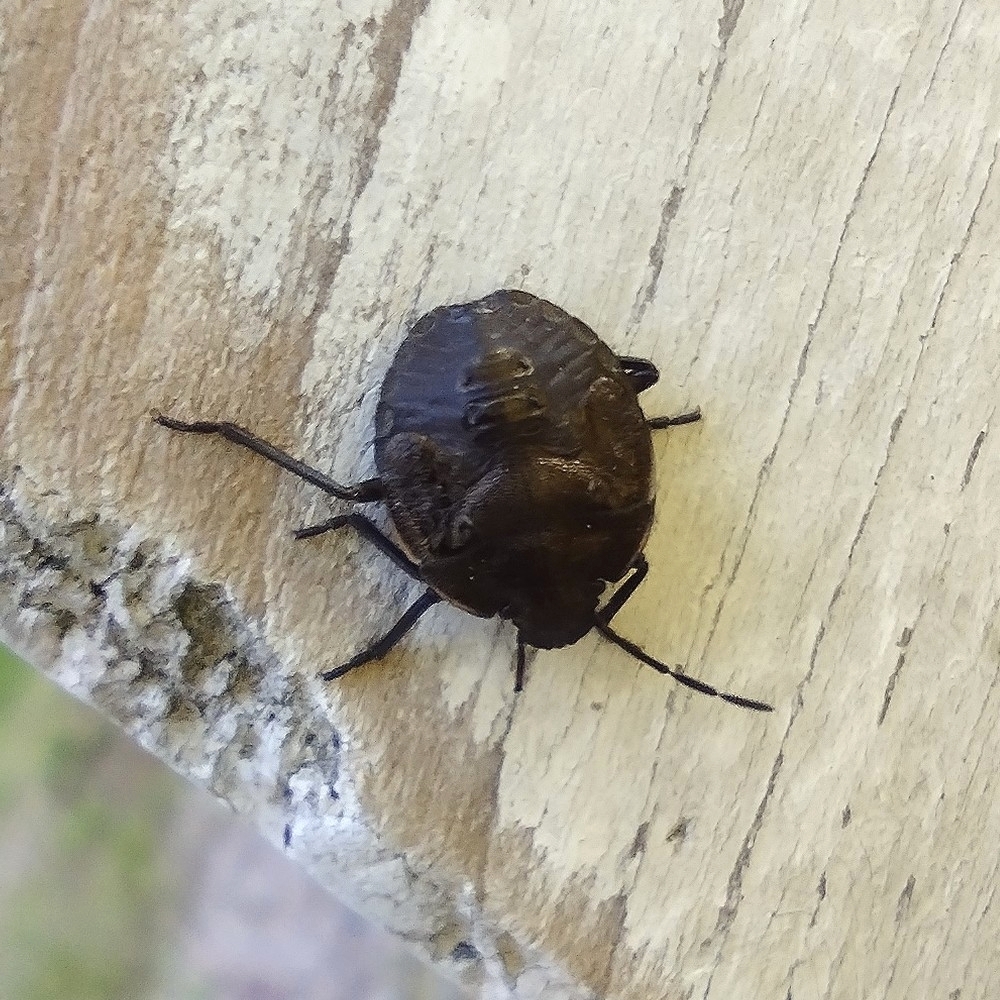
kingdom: Animalia
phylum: Arthropoda
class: Insecta
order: Hemiptera
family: Pentatomidae
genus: Chlorochroa
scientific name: Chlorochroa pinicola
